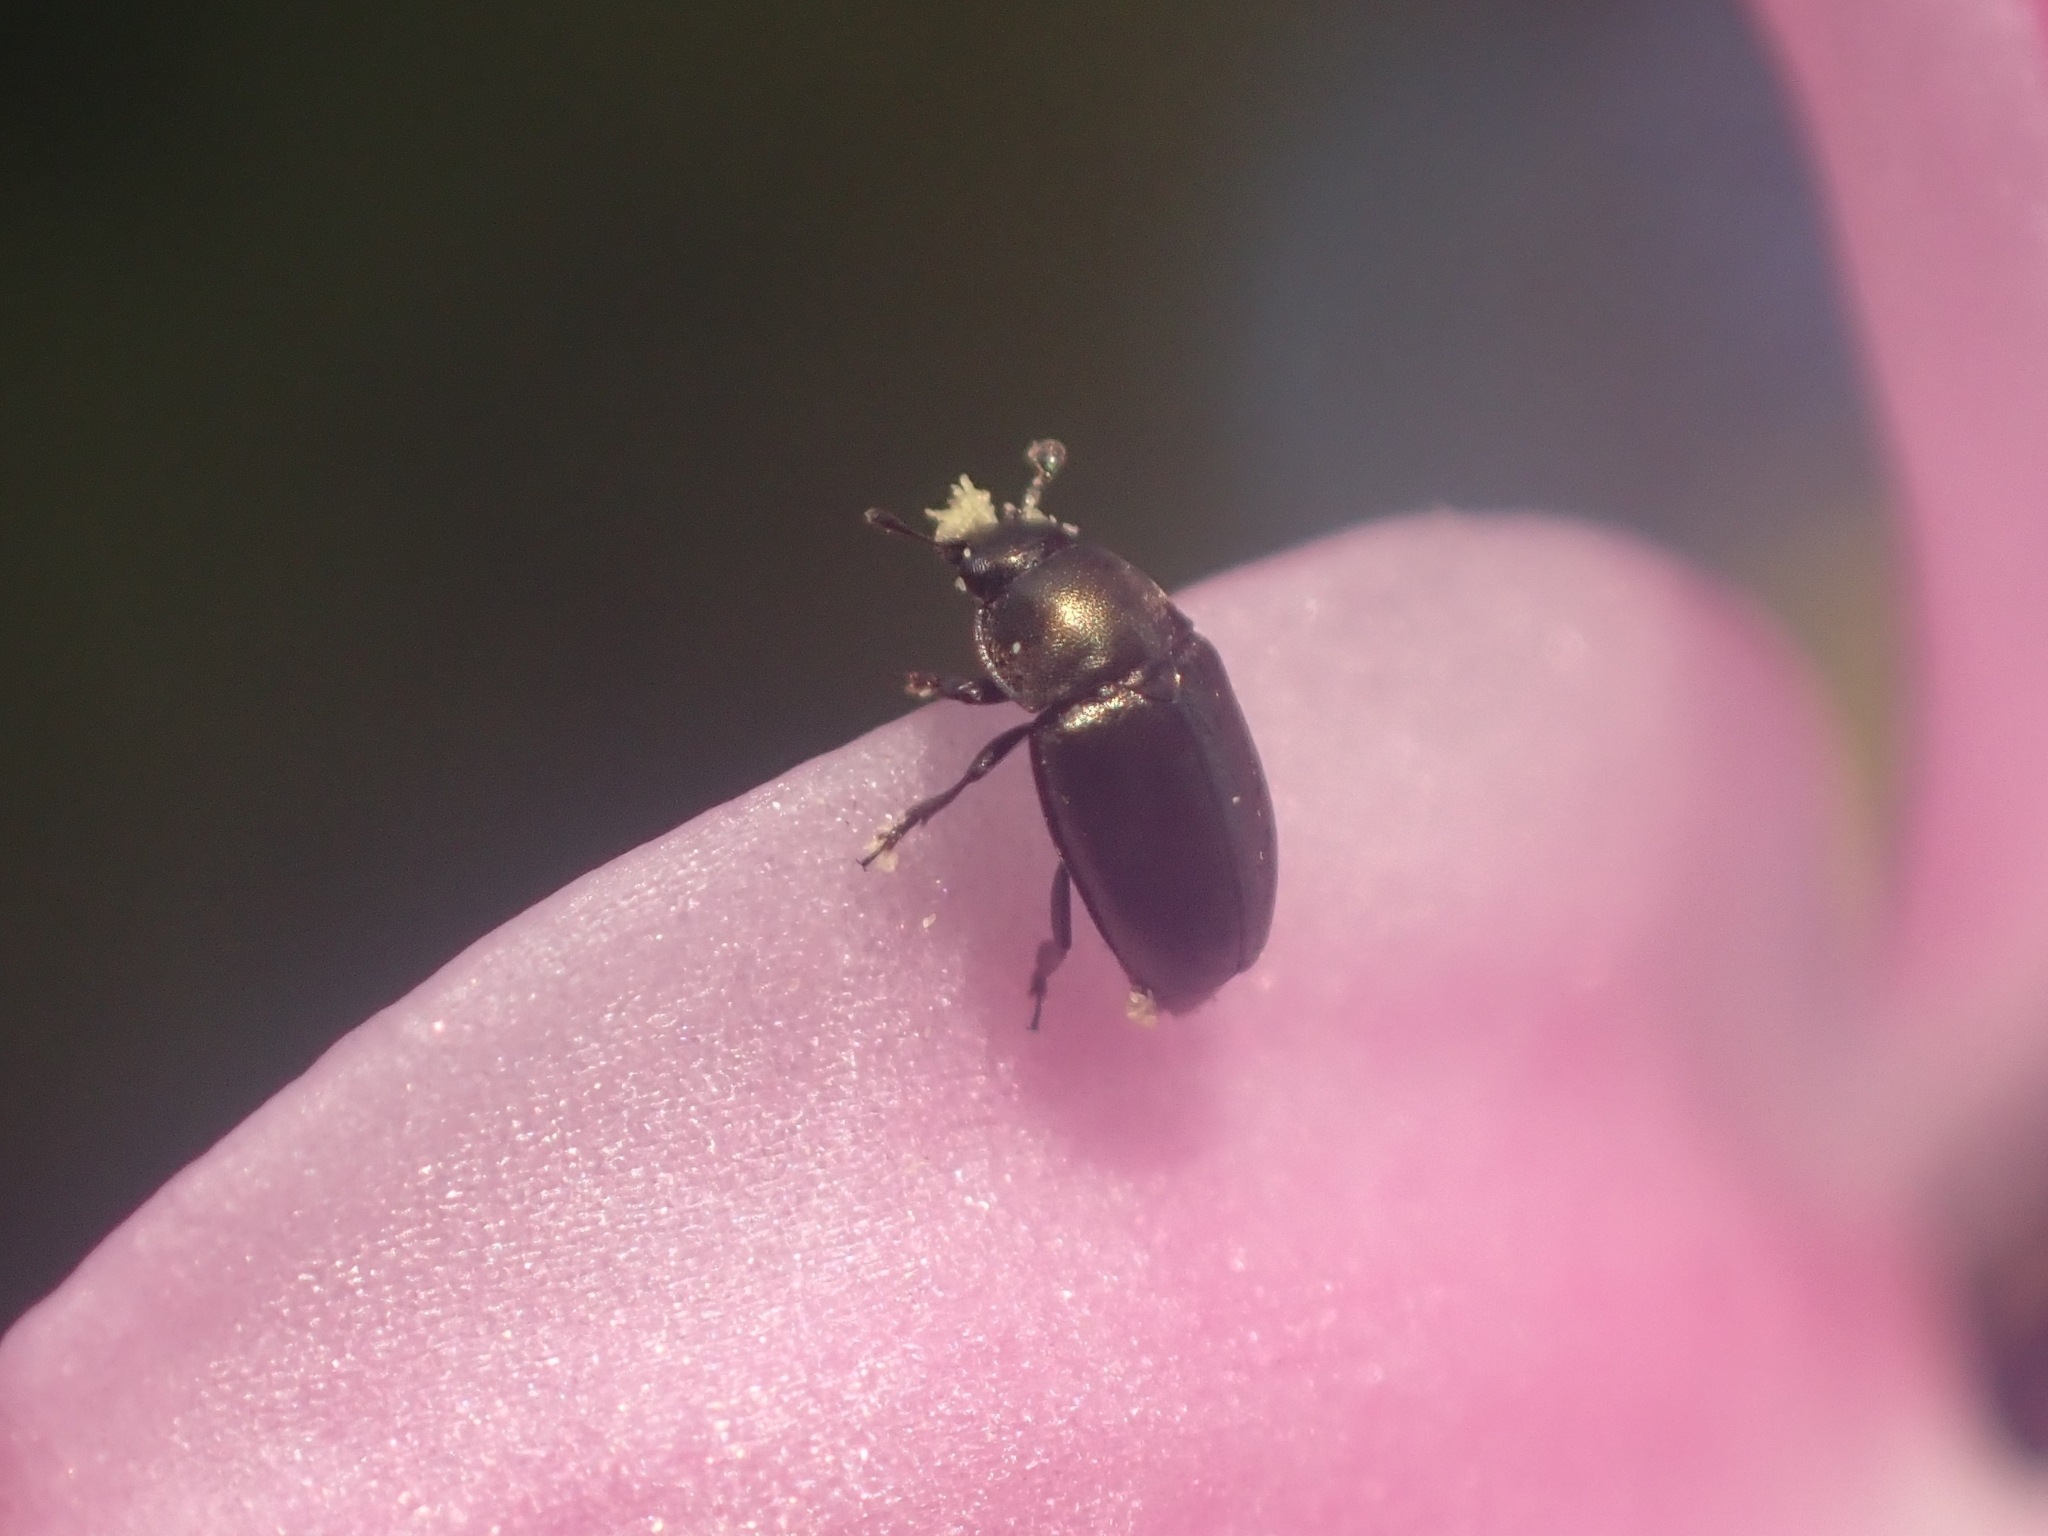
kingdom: Animalia
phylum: Arthropoda
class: Insecta
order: Coleoptera
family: Nitidulidae
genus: Brassicogethes
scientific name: Brassicogethes aeneus
